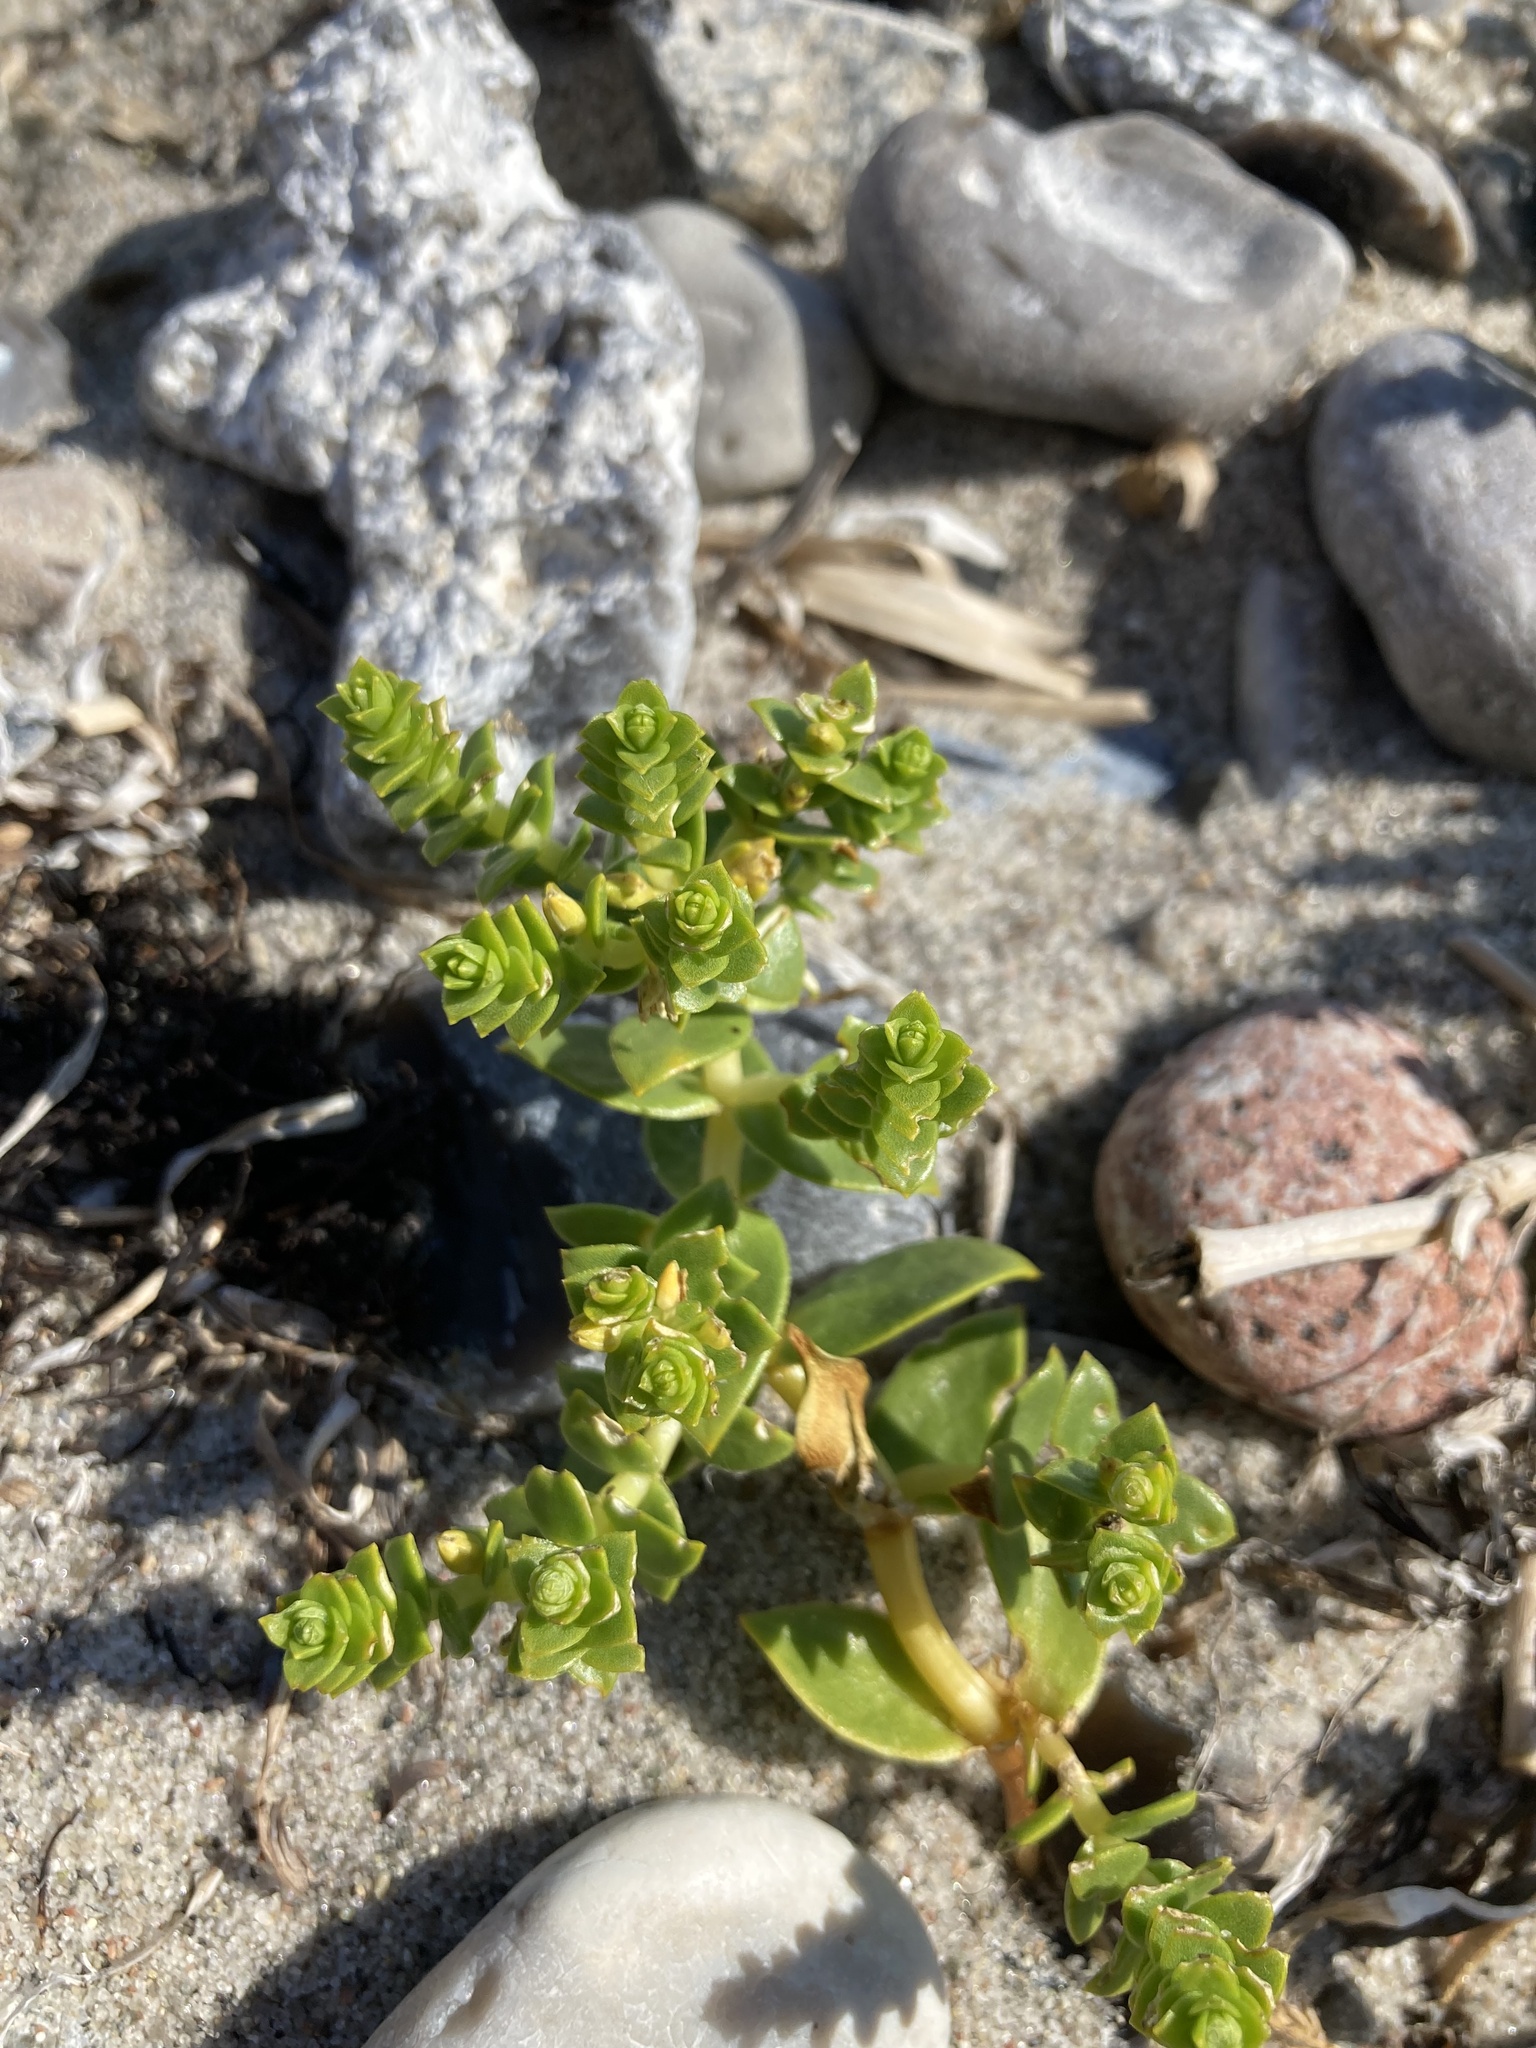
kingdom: Plantae
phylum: Tracheophyta
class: Magnoliopsida
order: Caryophyllales
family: Caryophyllaceae
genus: Honckenya
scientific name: Honckenya peploides
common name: Sea sandwort
